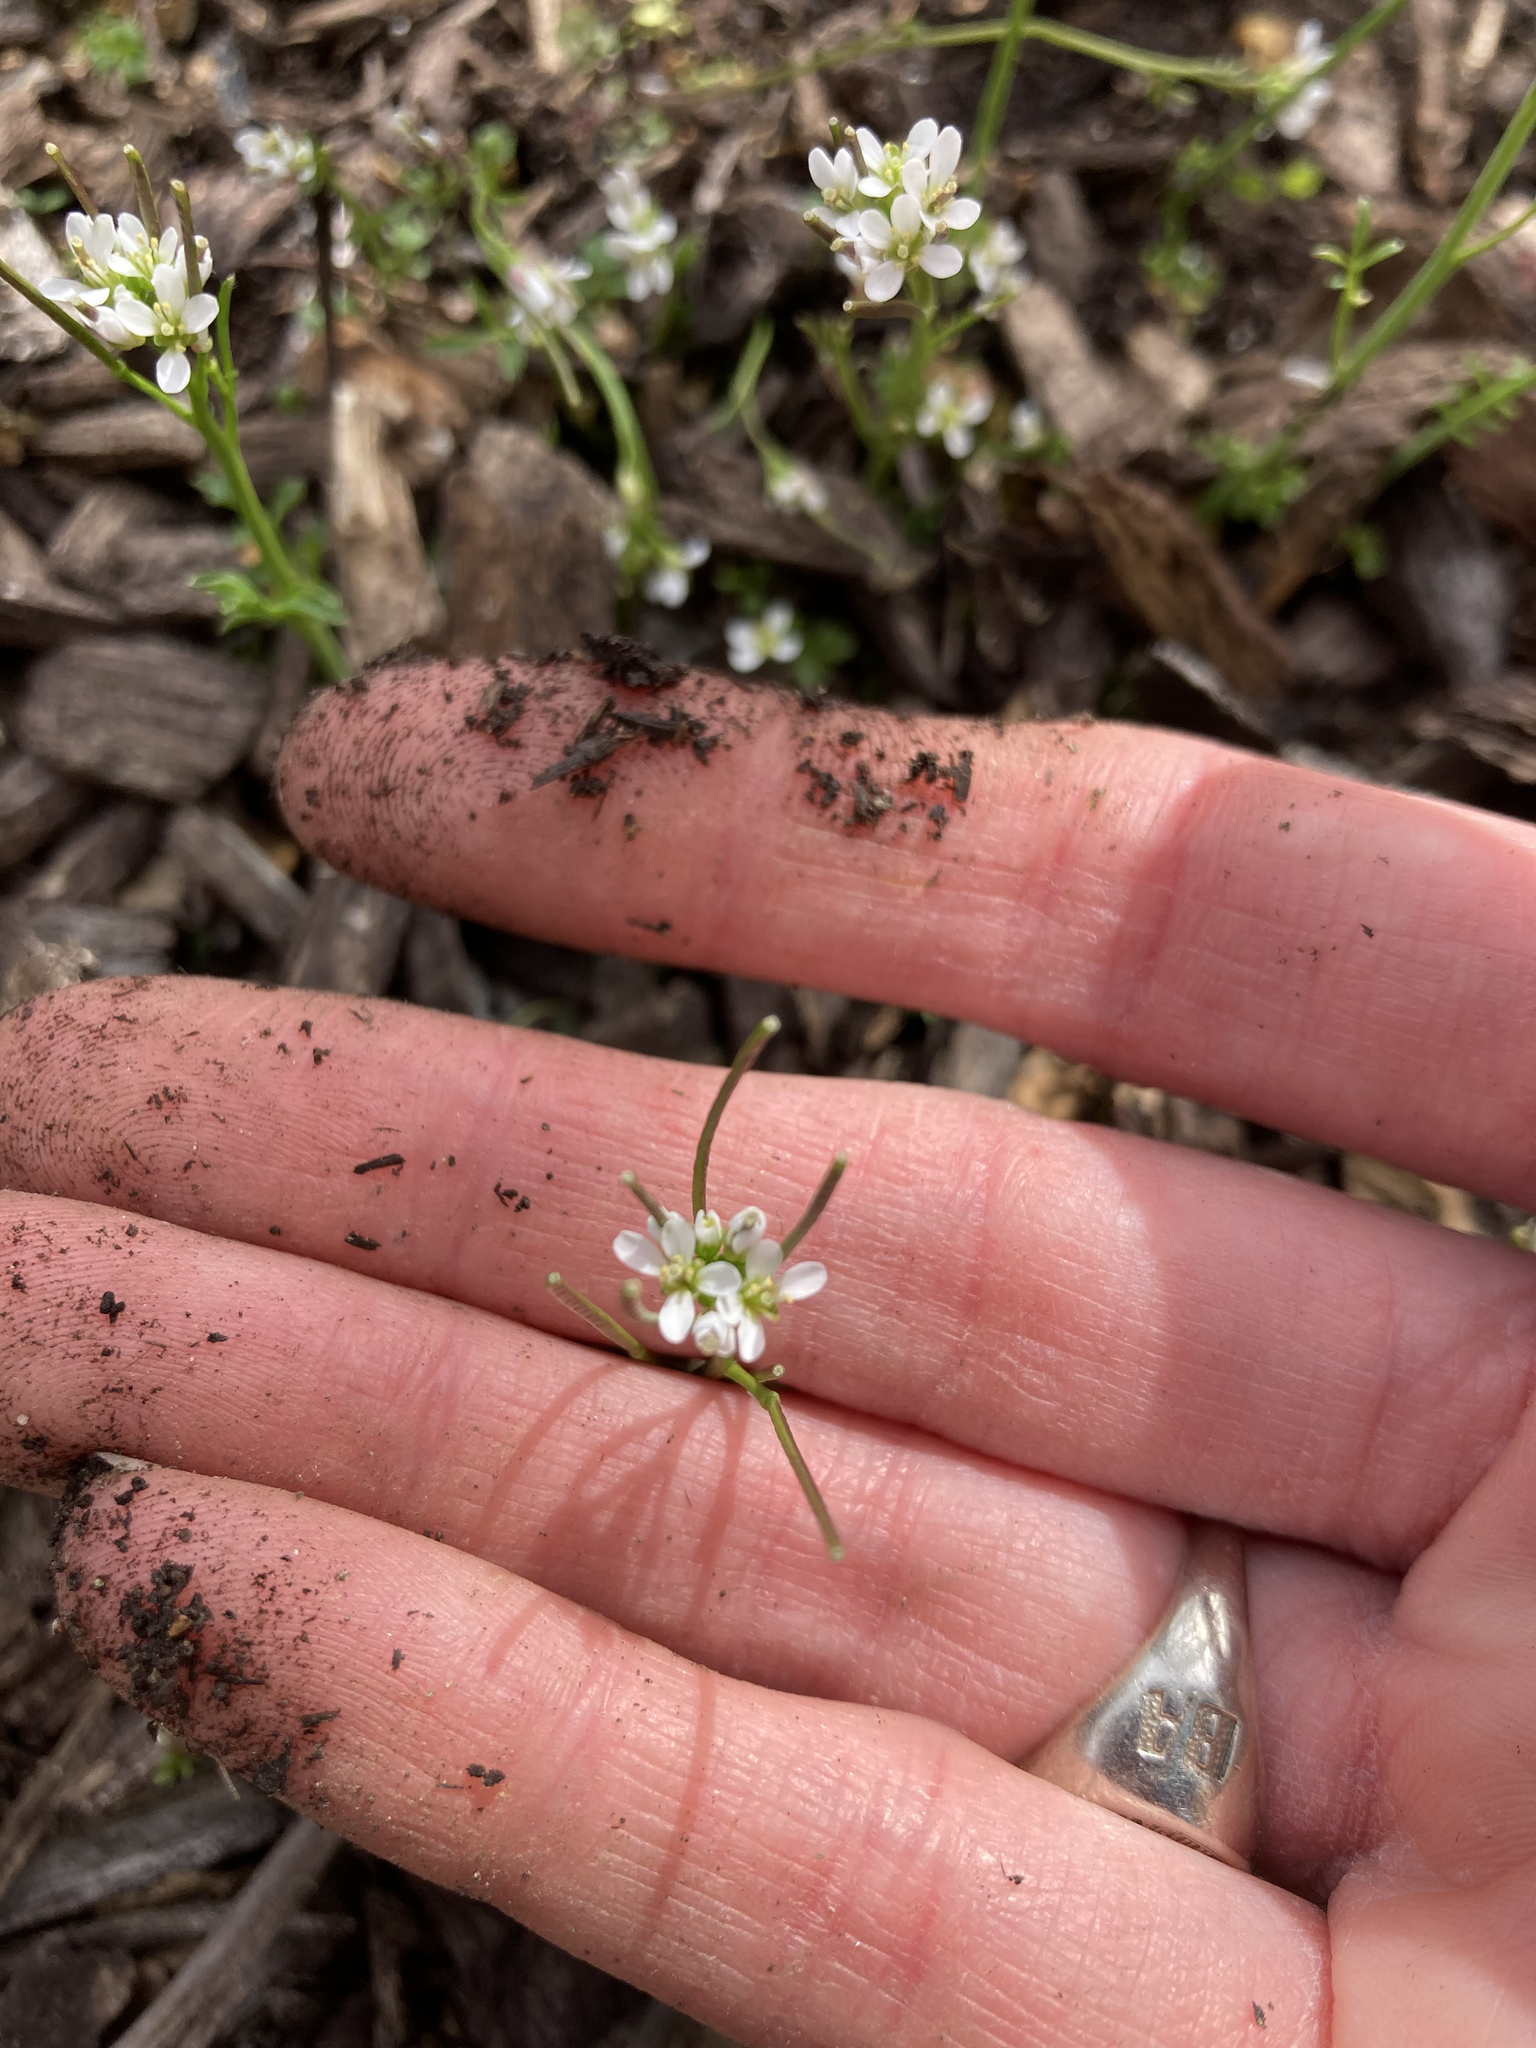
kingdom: Plantae
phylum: Tracheophyta
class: Magnoliopsida
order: Brassicales
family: Brassicaceae
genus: Cardamine
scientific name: Cardamine hirsuta
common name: Hairy bittercress
